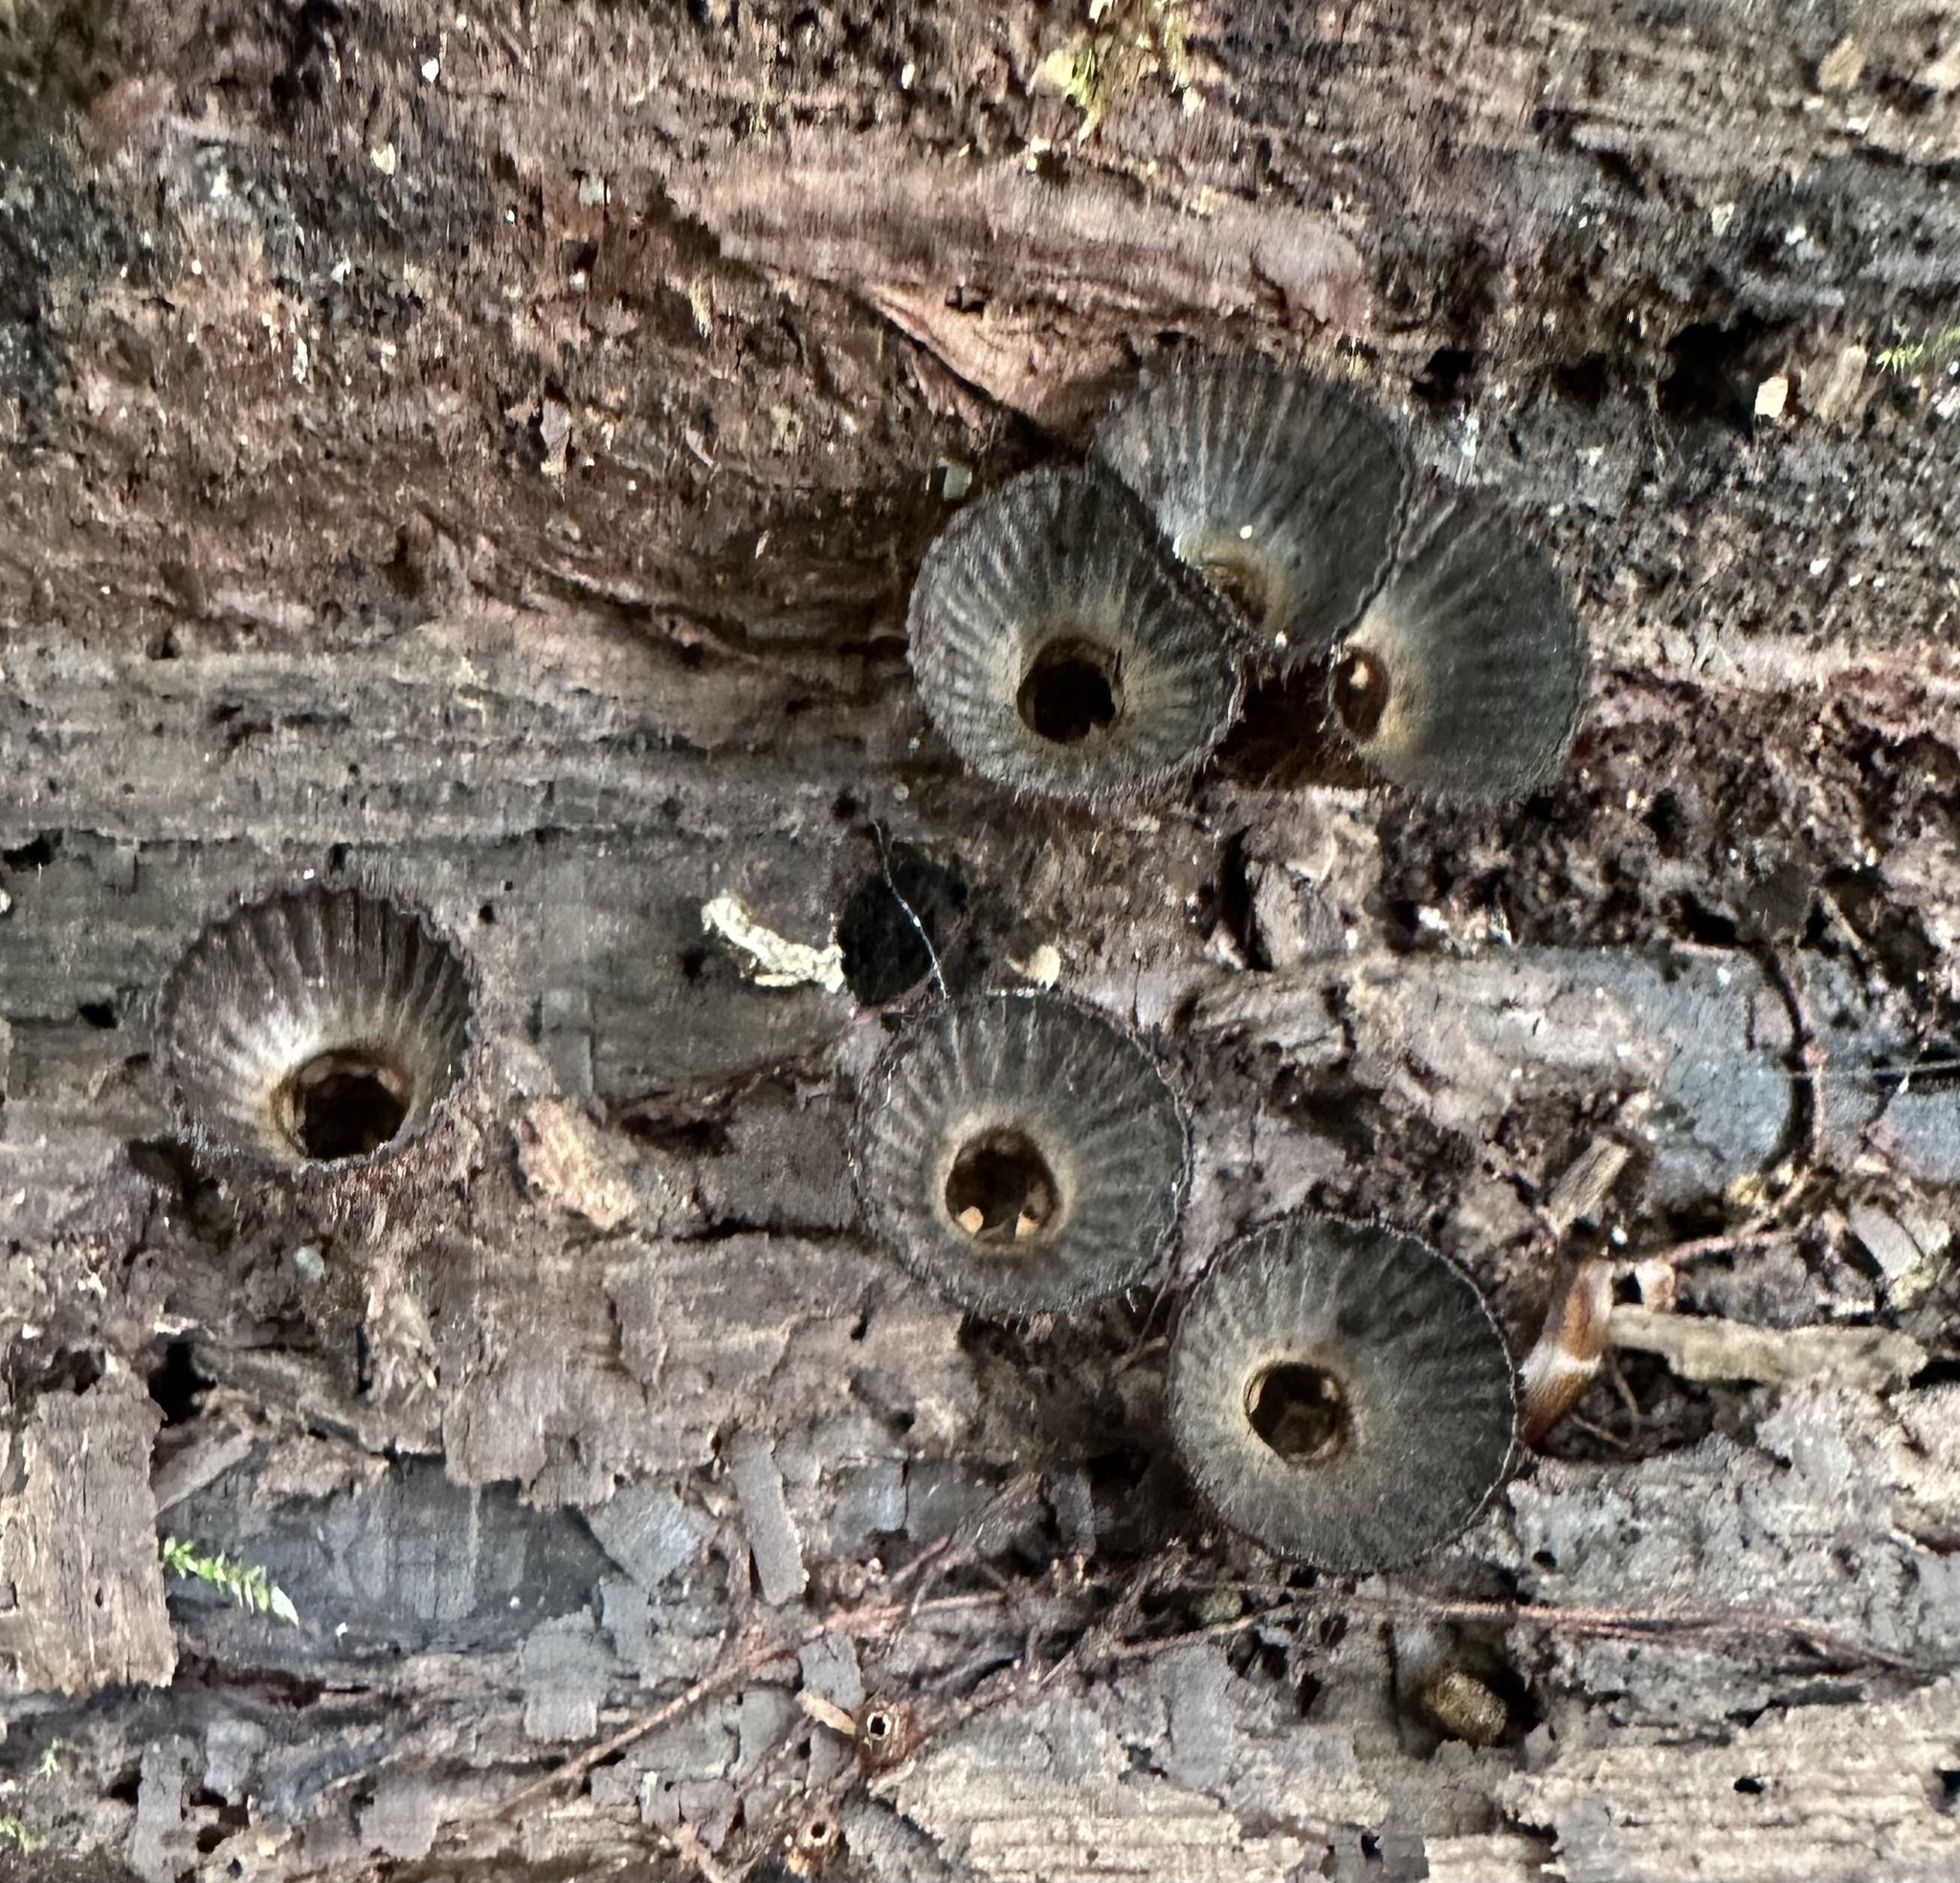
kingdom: Fungi
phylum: Basidiomycota
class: Agaricomycetes
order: Agaricales
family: Agaricaceae
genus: Cyathus
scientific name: Cyathus striatus
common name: Fluted bird's nest
